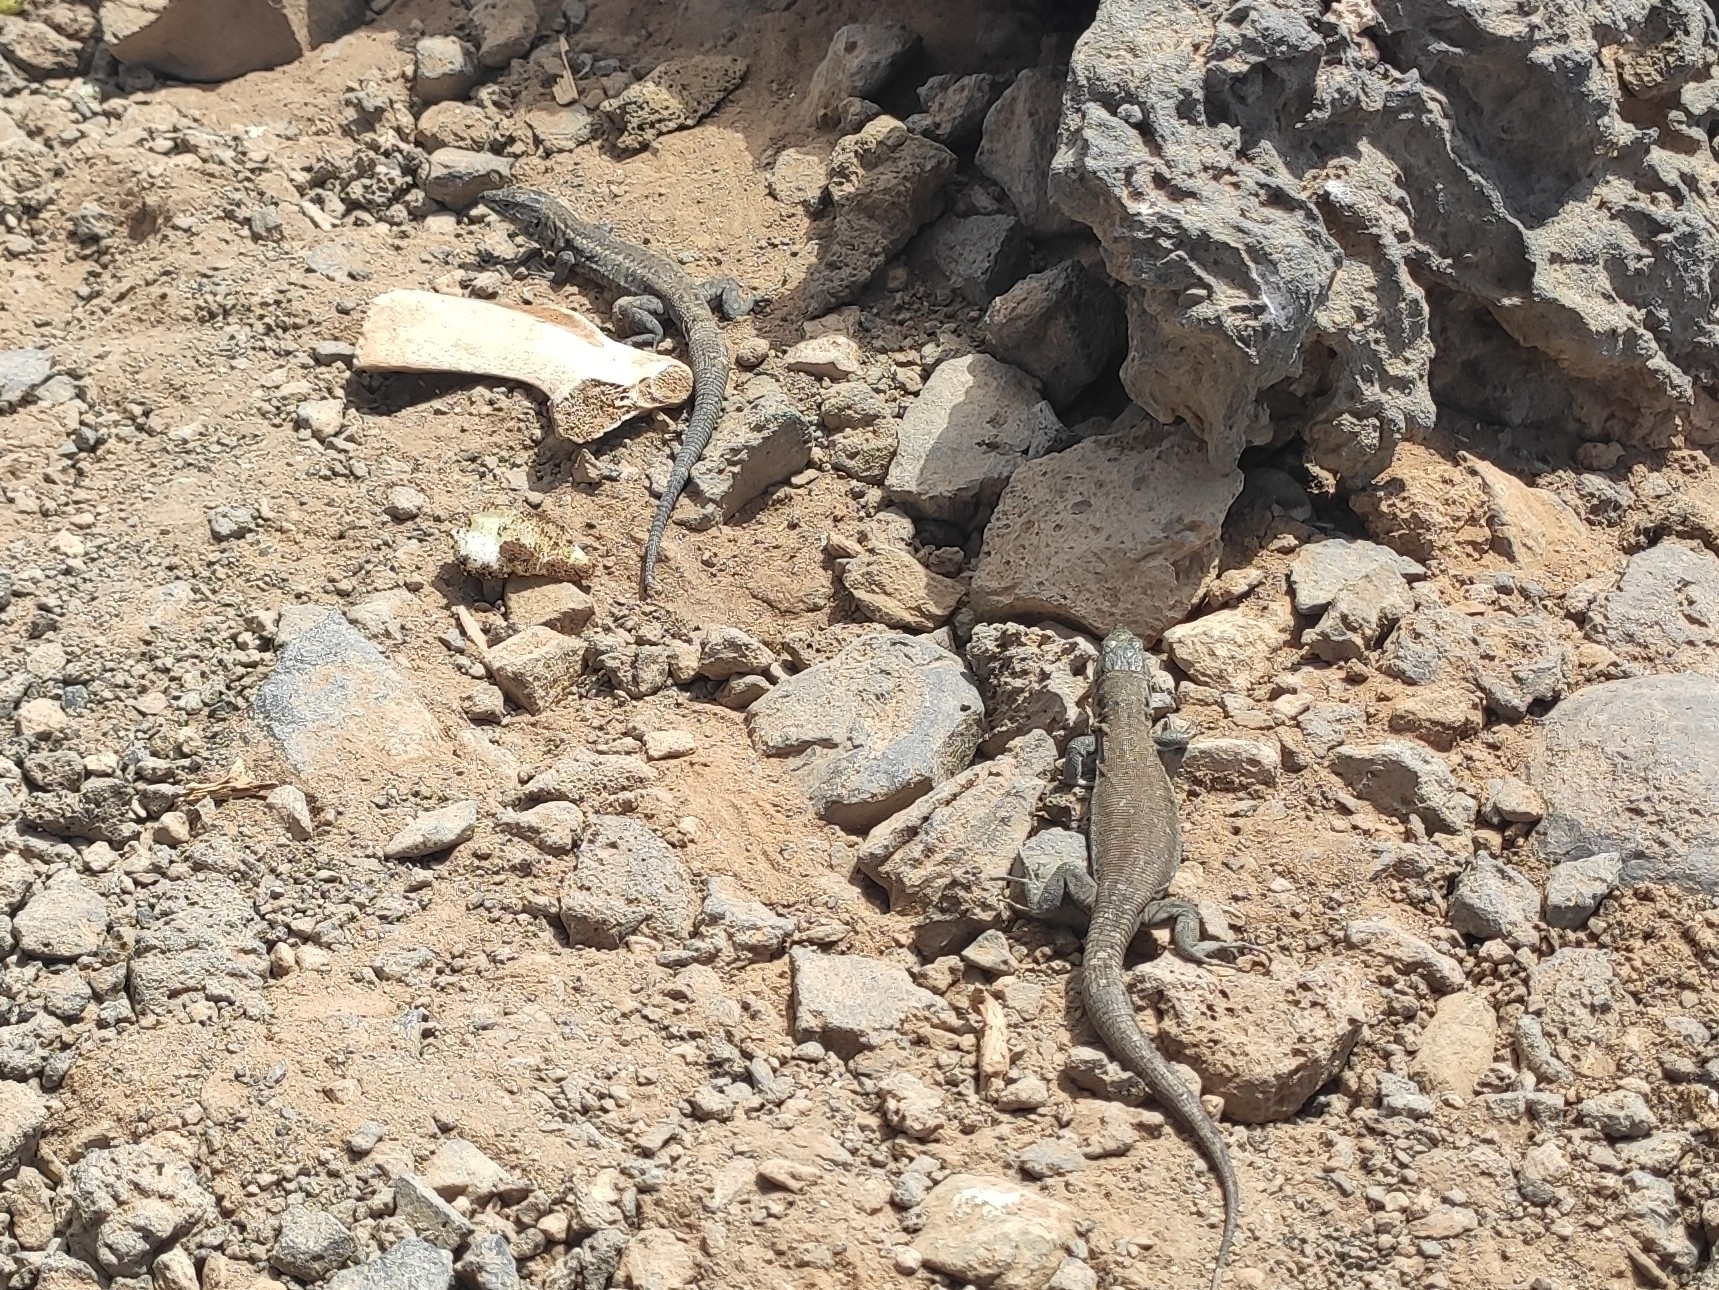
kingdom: Animalia
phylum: Chordata
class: Squamata
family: Lacertidae
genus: Gallotia
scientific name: Gallotia atlantica
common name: Atlantic lizard
